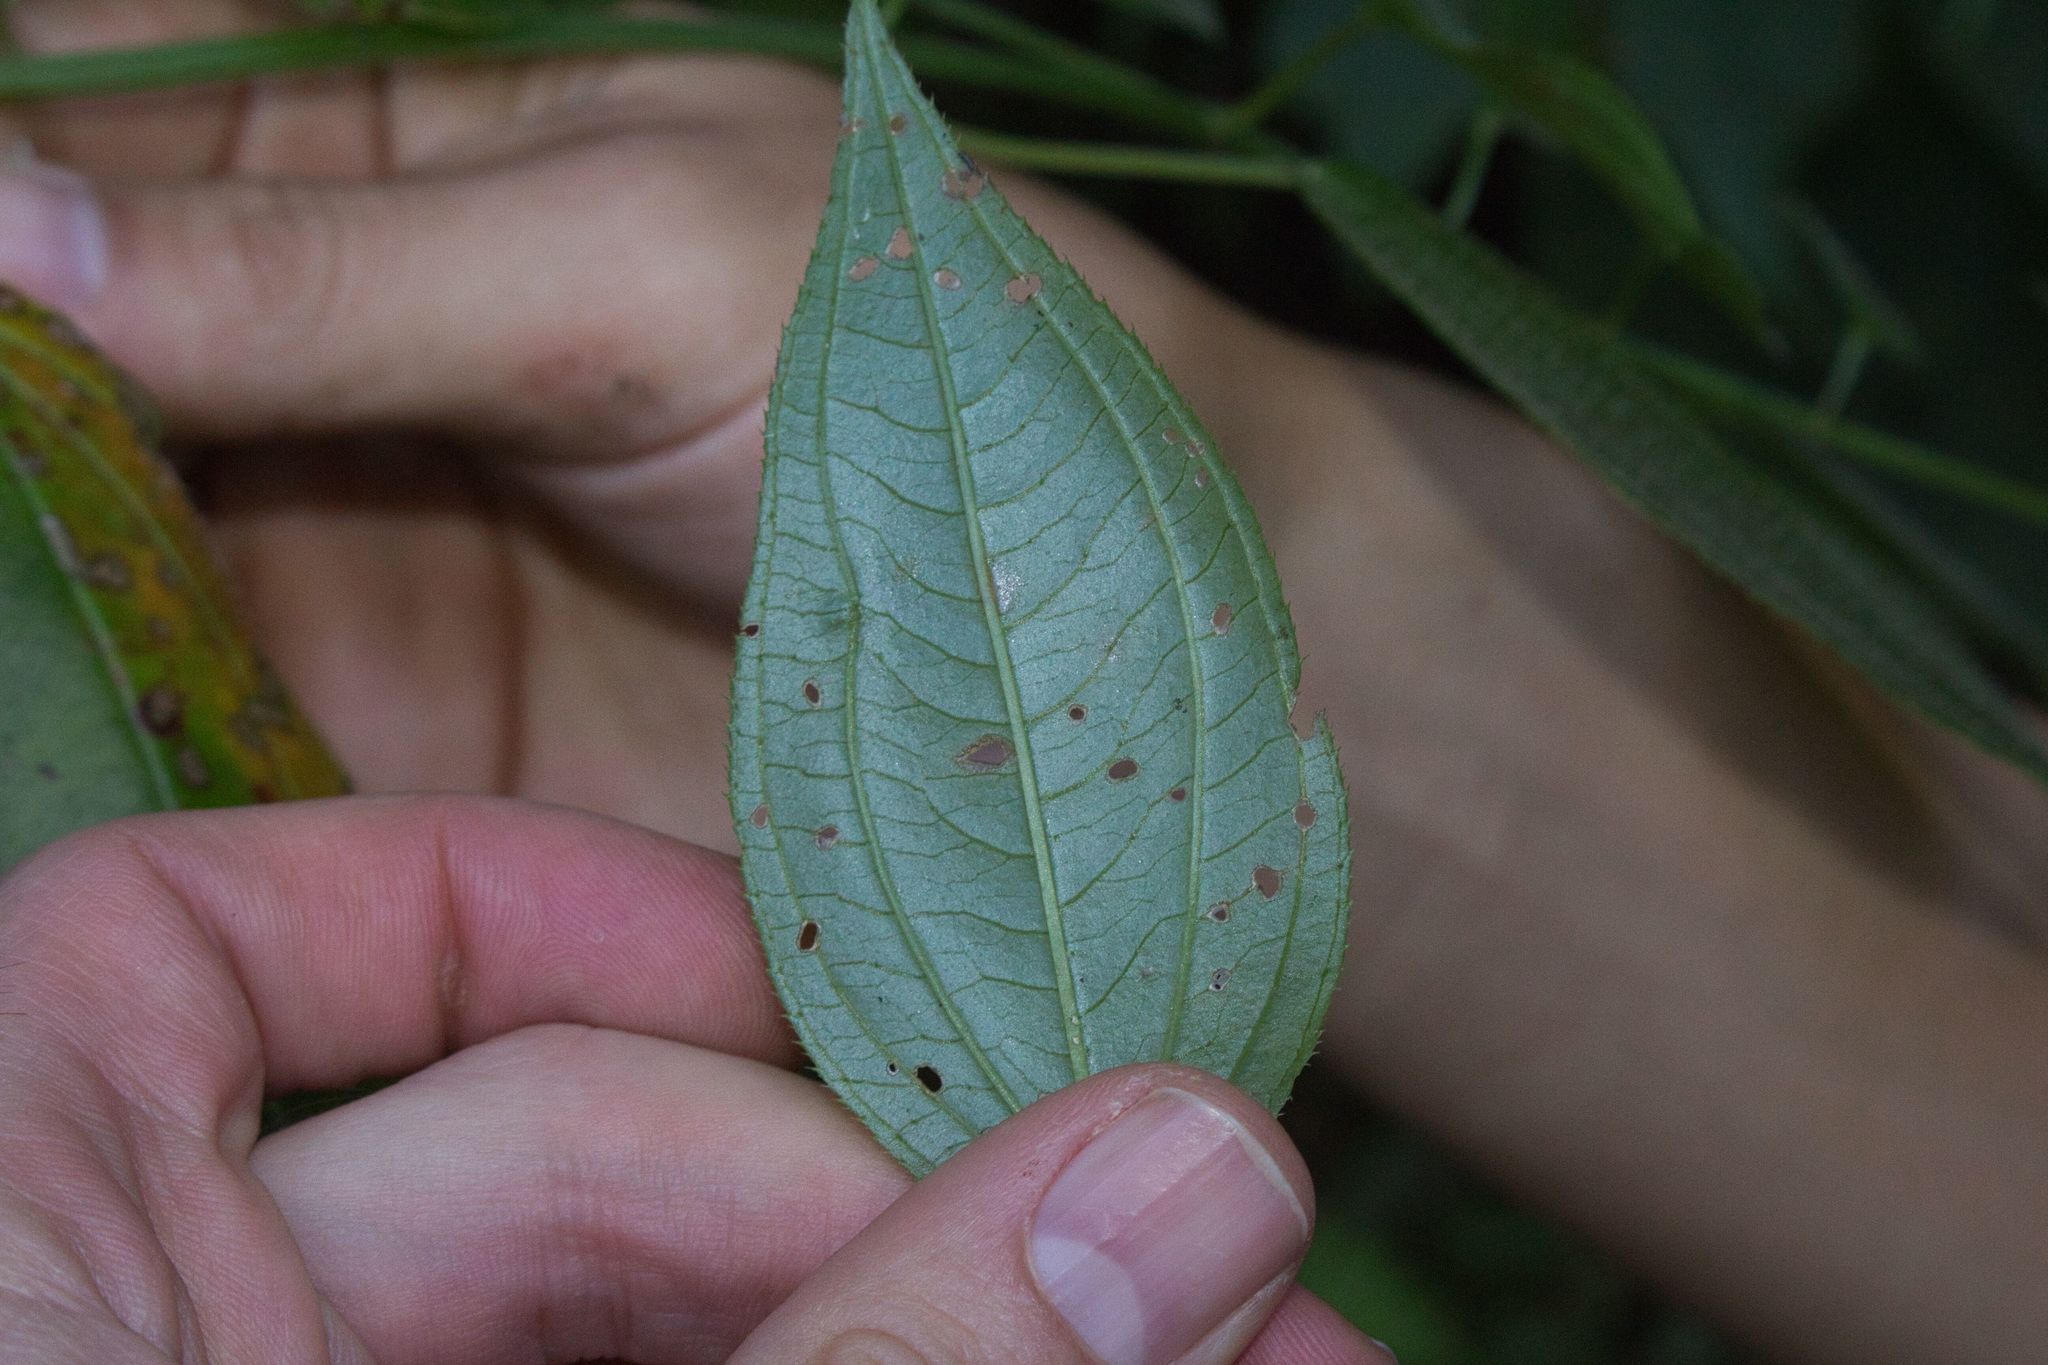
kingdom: Plantae
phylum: Tracheophyta
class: Magnoliopsida
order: Myrtales
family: Melastomataceae
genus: Arthrostemma
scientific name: Arthrostemma ciliatum
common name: Everblooming eavender
